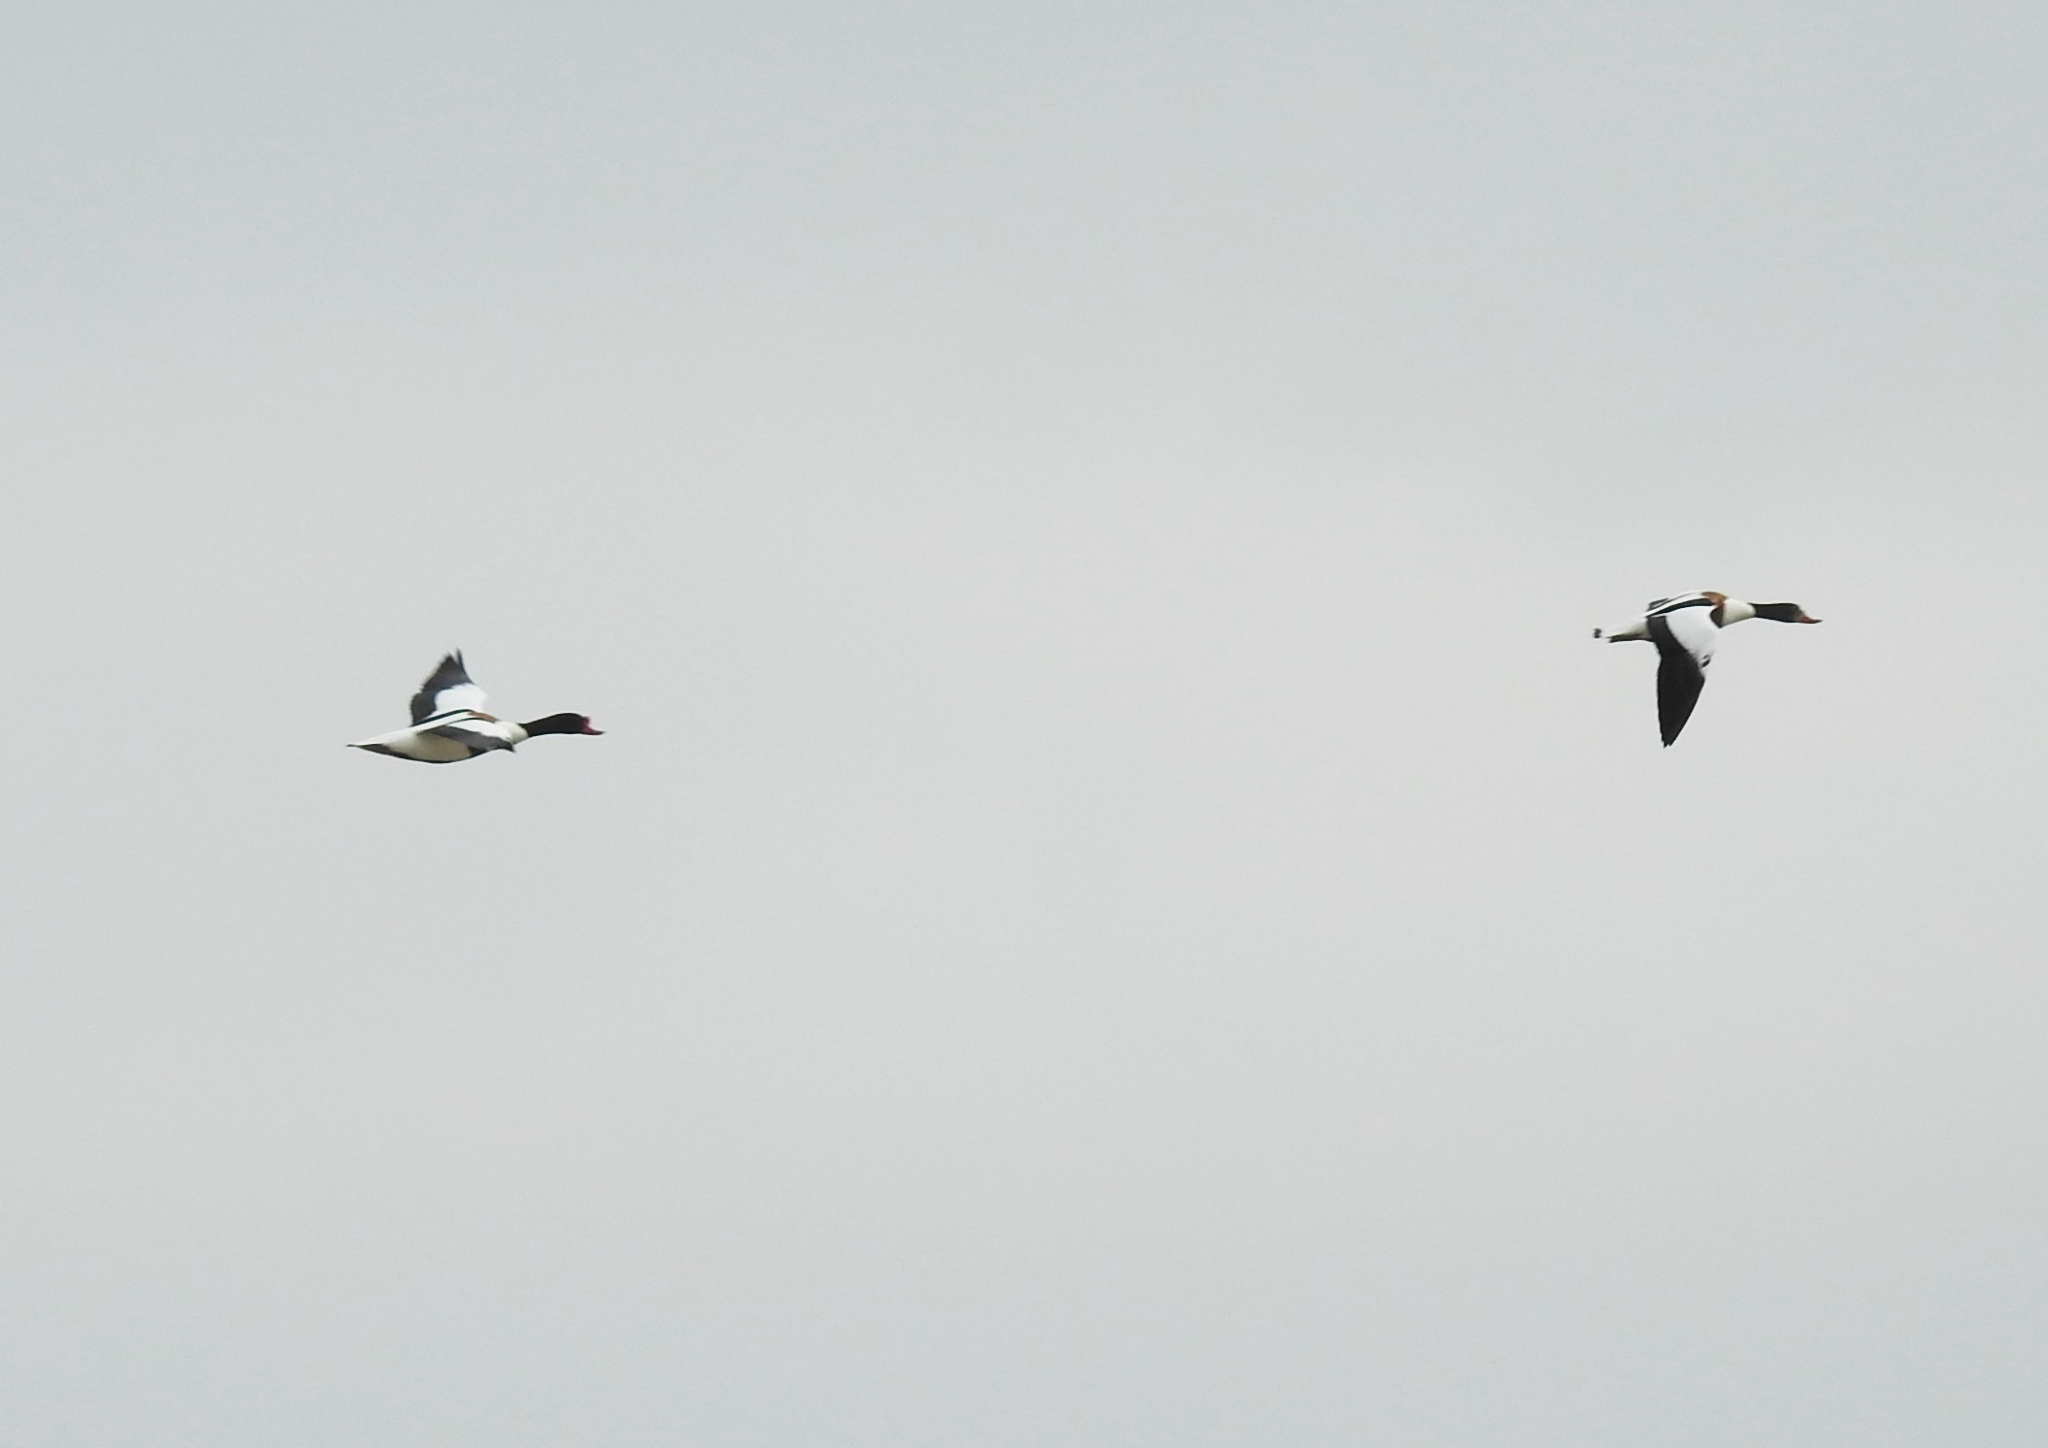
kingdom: Animalia
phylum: Chordata
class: Aves
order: Anseriformes
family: Anatidae
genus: Tadorna
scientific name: Tadorna tadorna
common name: Common shelduck
